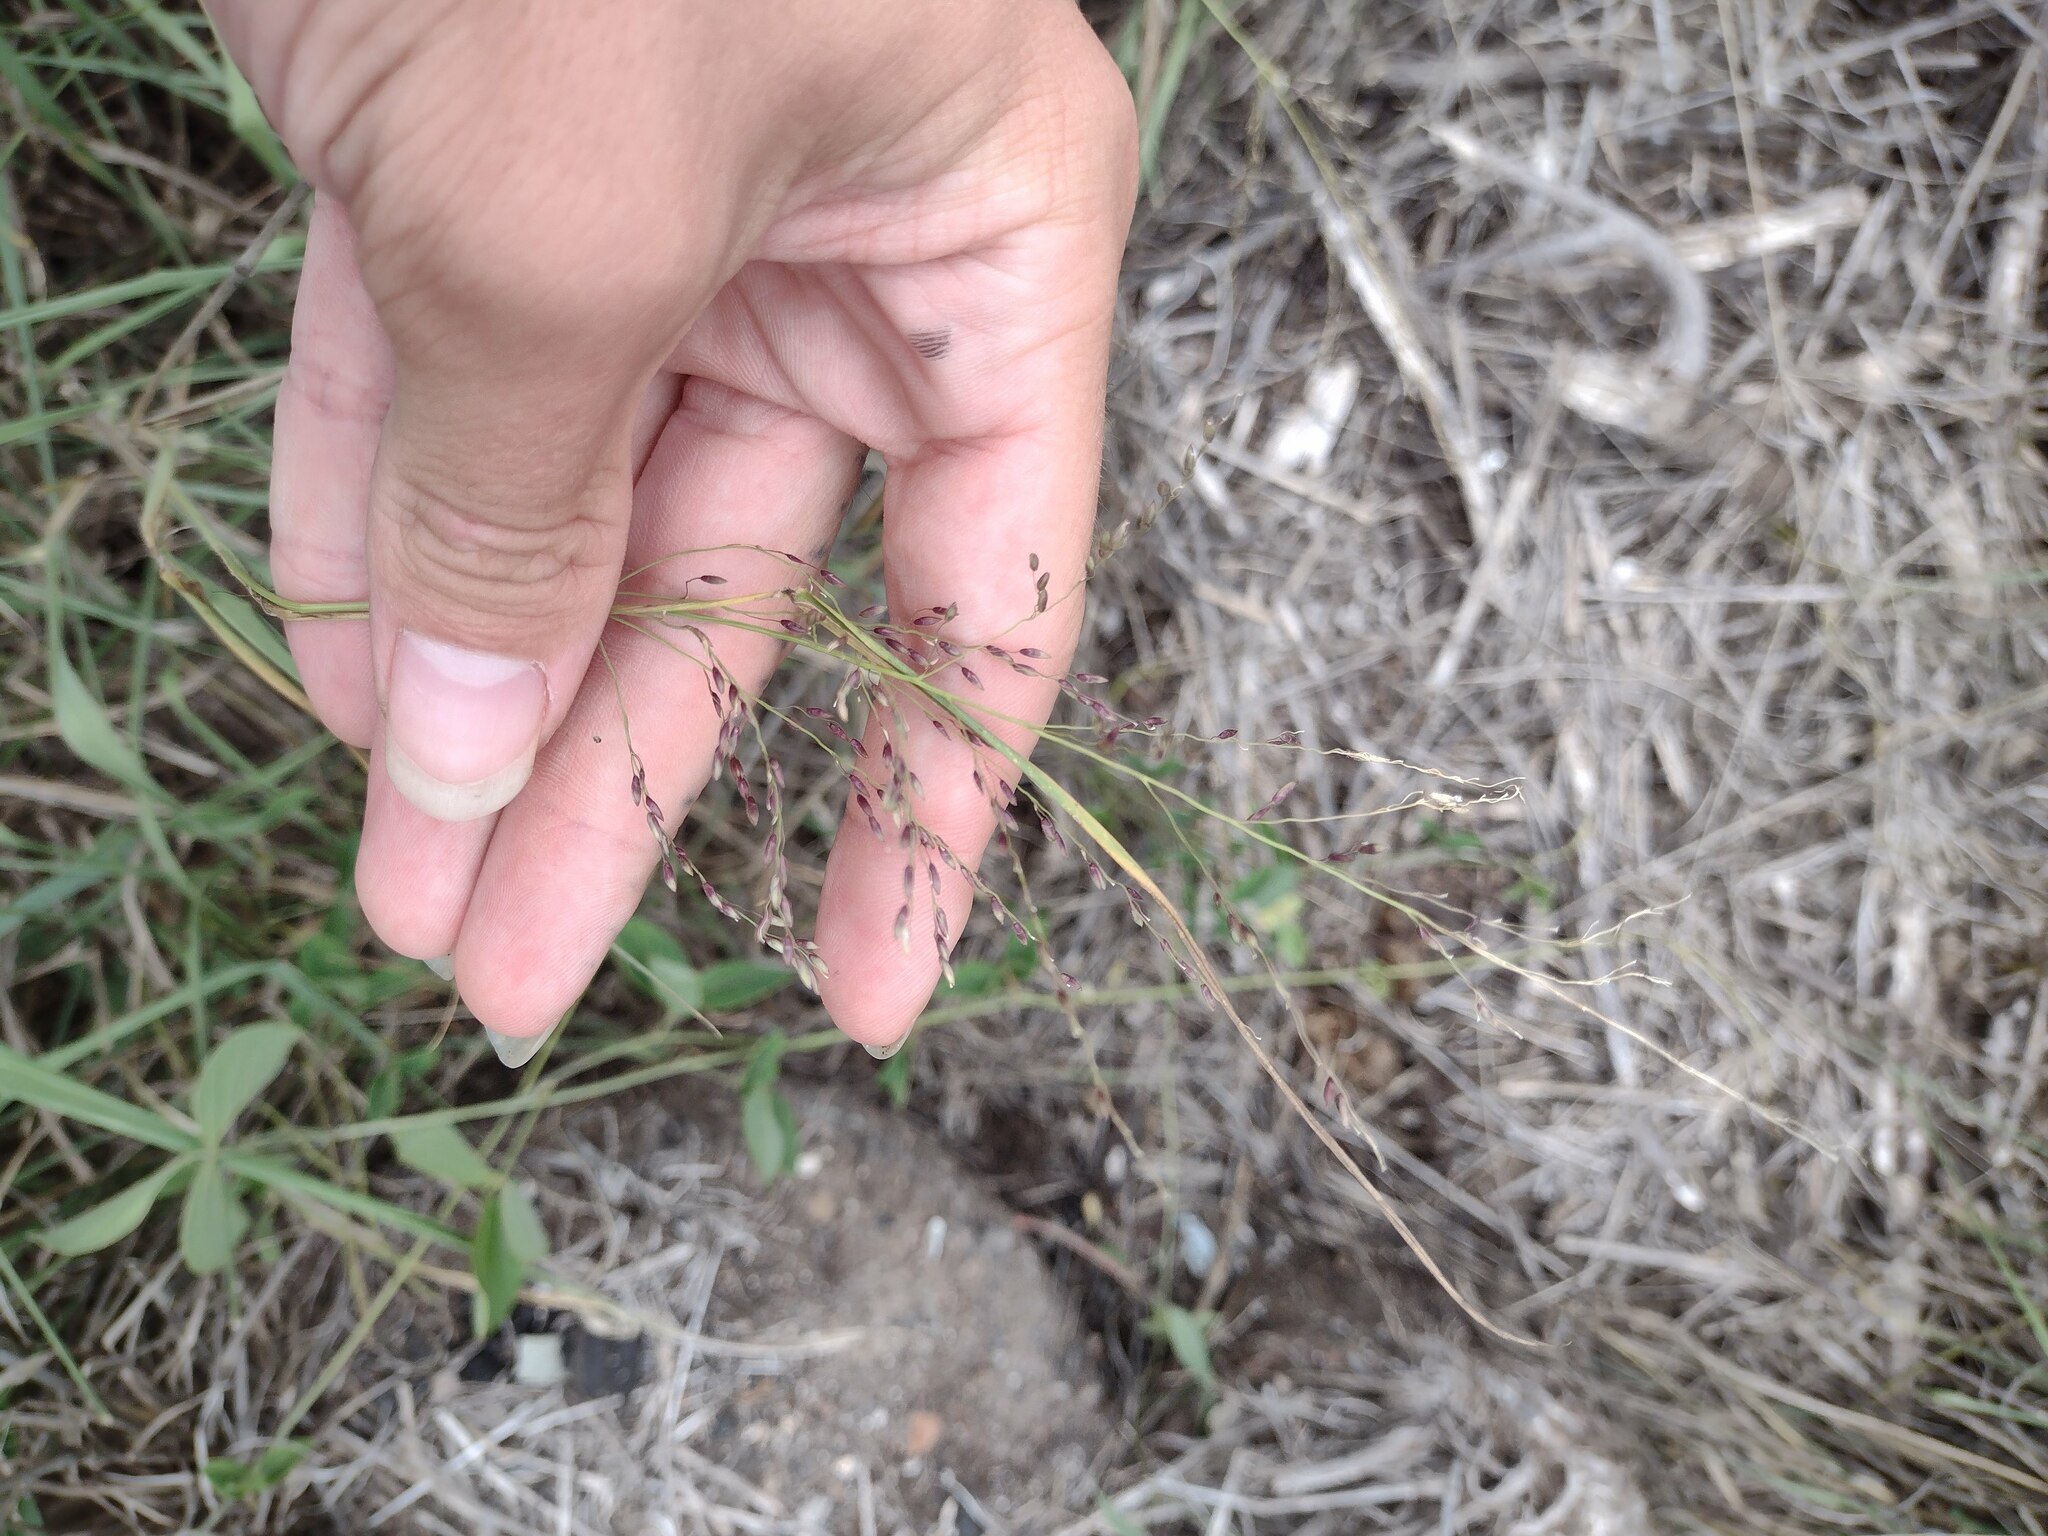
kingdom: Plantae
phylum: Tracheophyta
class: Liliopsida
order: Poales
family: Poaceae
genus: Megathyrsus
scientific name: Megathyrsus maximus
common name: Guineagrass
